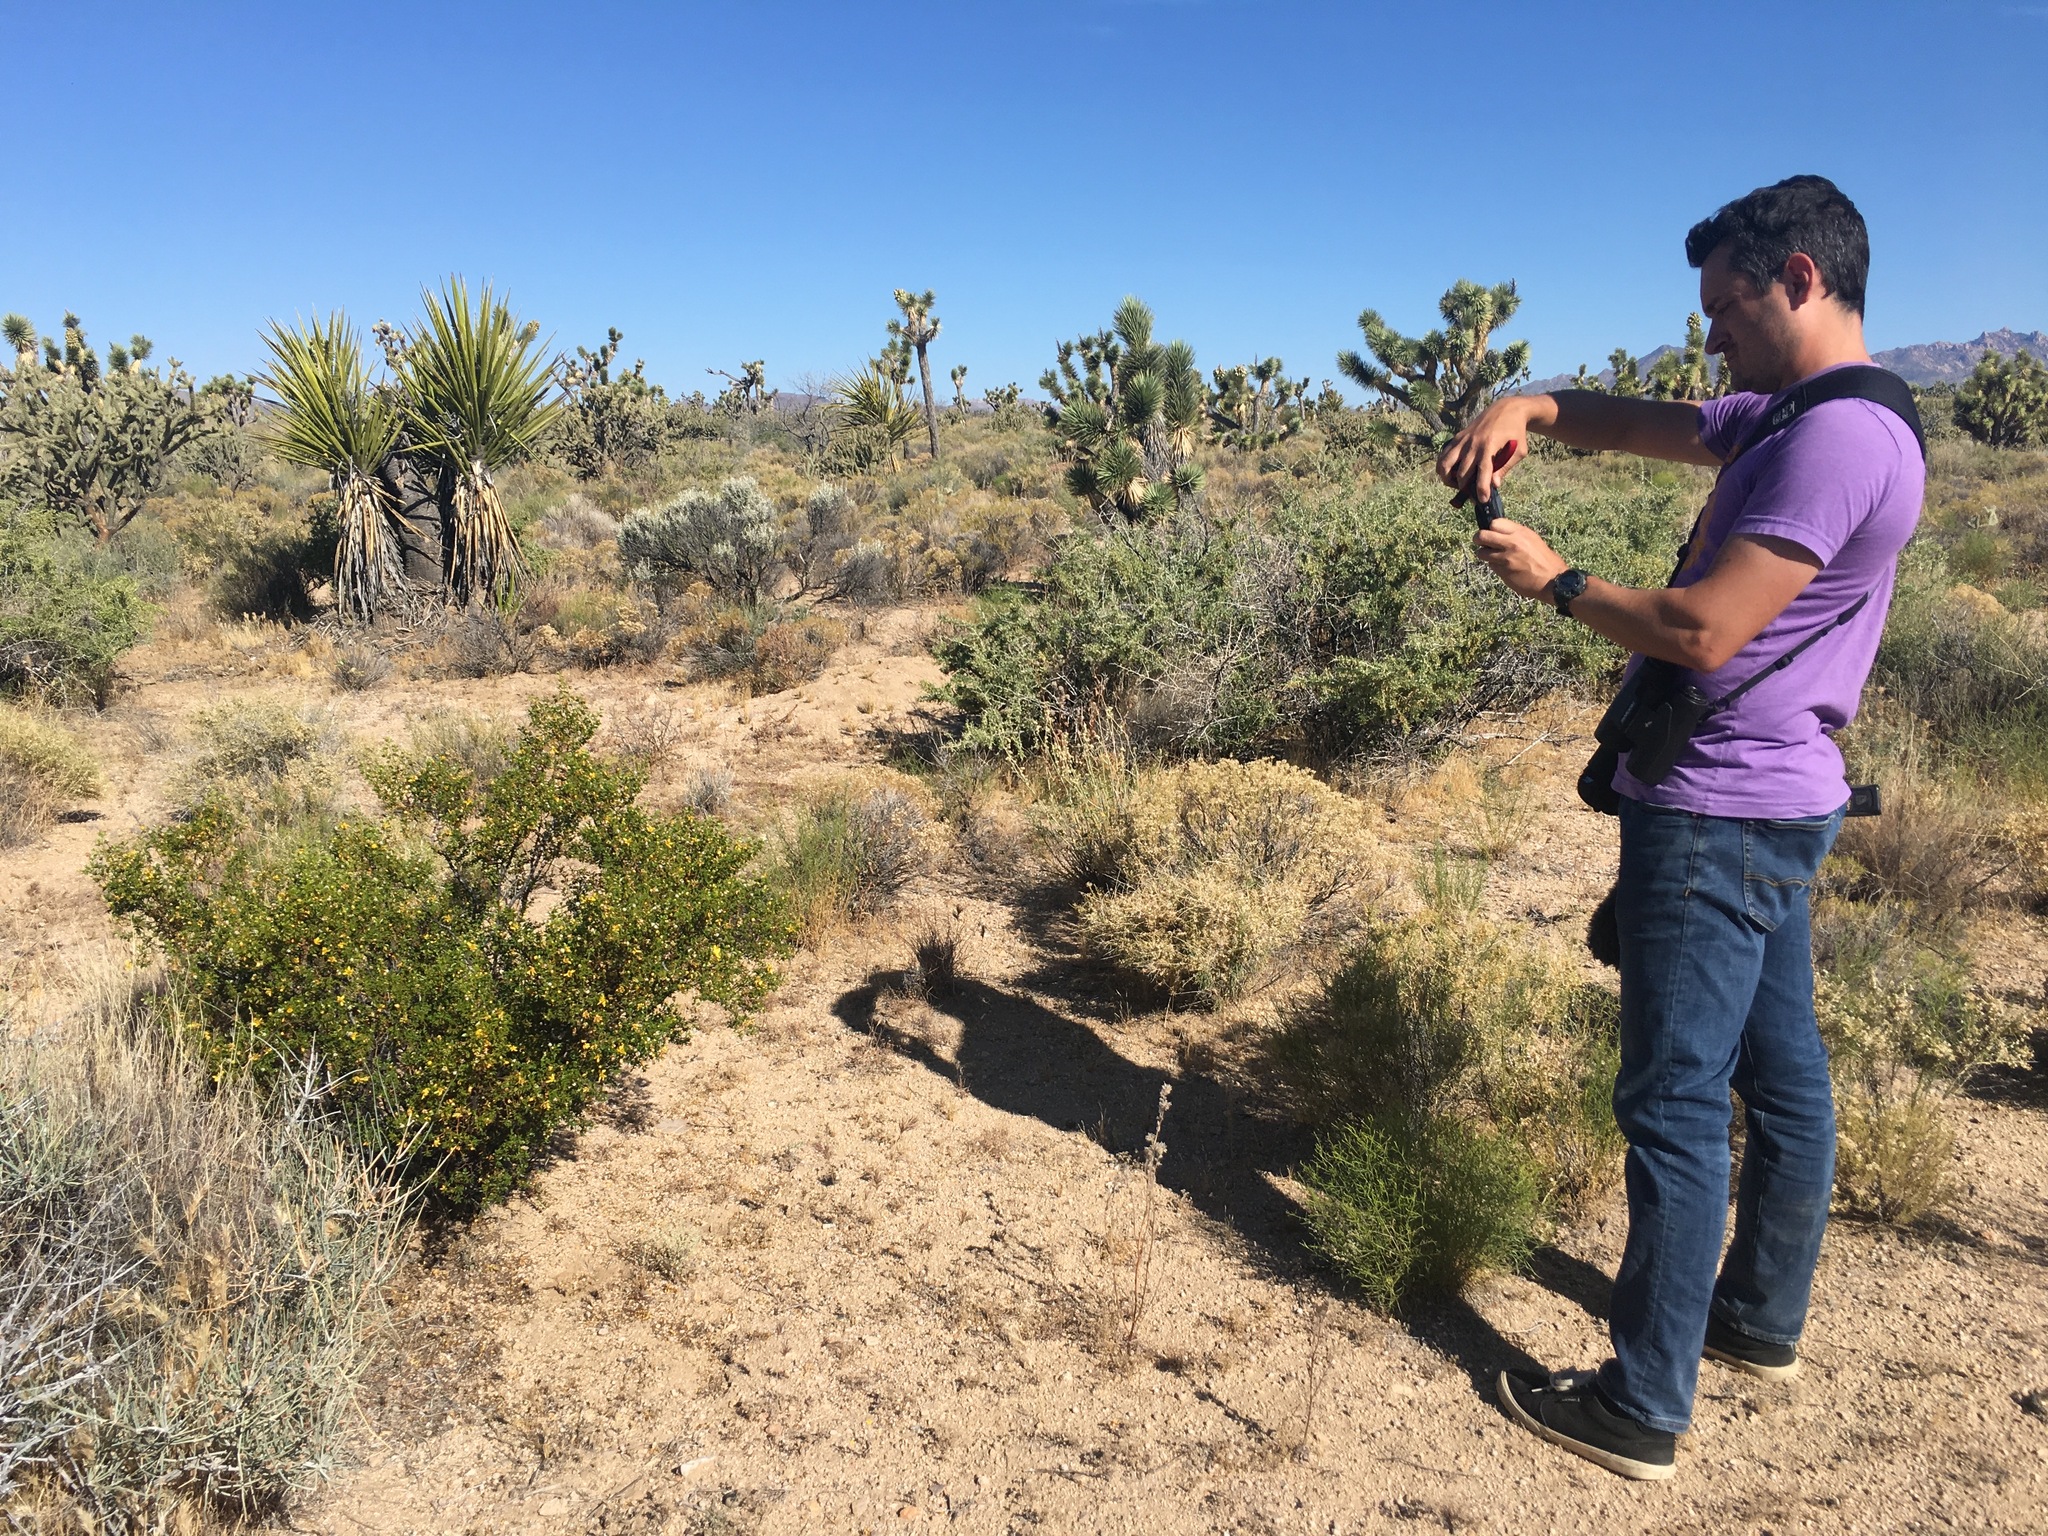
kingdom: Plantae
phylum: Tracheophyta
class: Magnoliopsida
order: Zygophyllales
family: Zygophyllaceae
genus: Larrea
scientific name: Larrea tridentata
